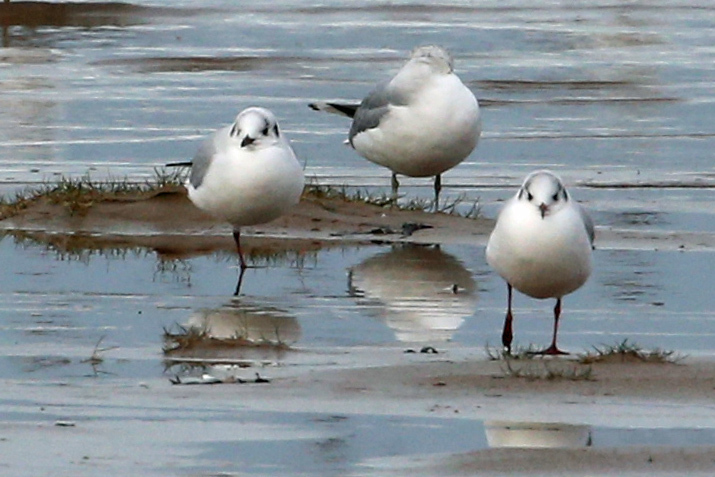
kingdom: Animalia
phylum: Chordata
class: Aves
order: Charadriiformes
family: Laridae
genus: Chroicocephalus
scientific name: Chroicocephalus ridibundus
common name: Black-headed gull
